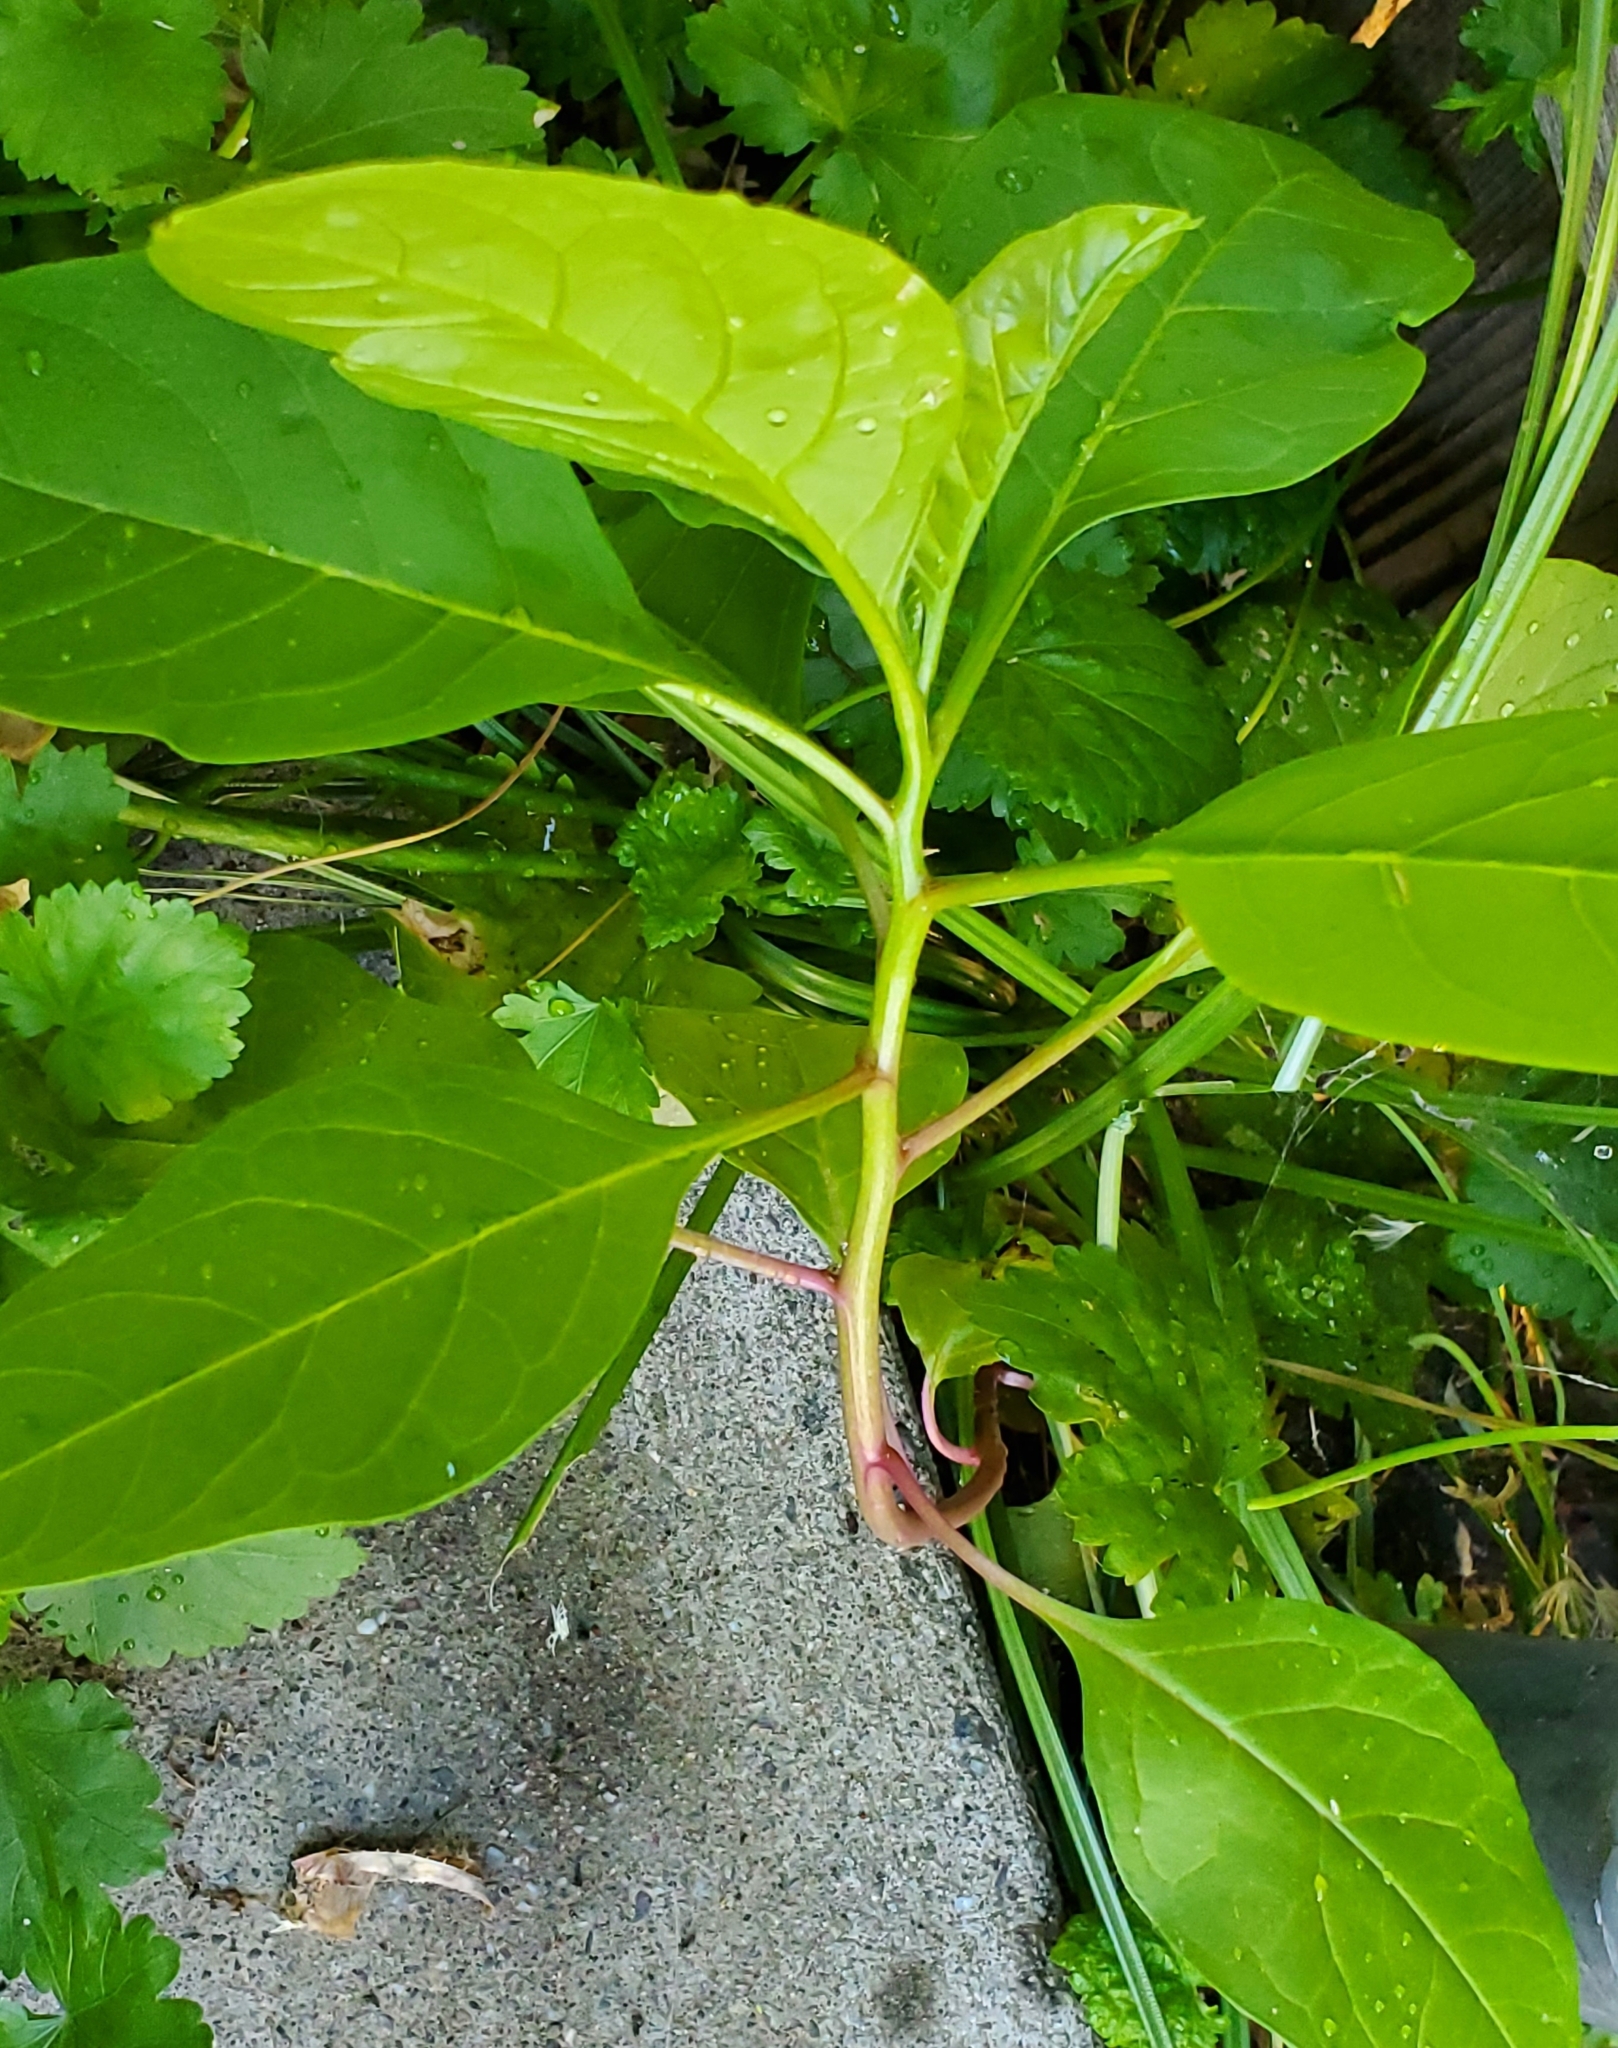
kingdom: Plantae
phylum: Tracheophyta
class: Magnoliopsida
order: Caryophyllales
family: Phytolaccaceae
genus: Phytolacca
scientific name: Phytolacca americana
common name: American pokeweed
